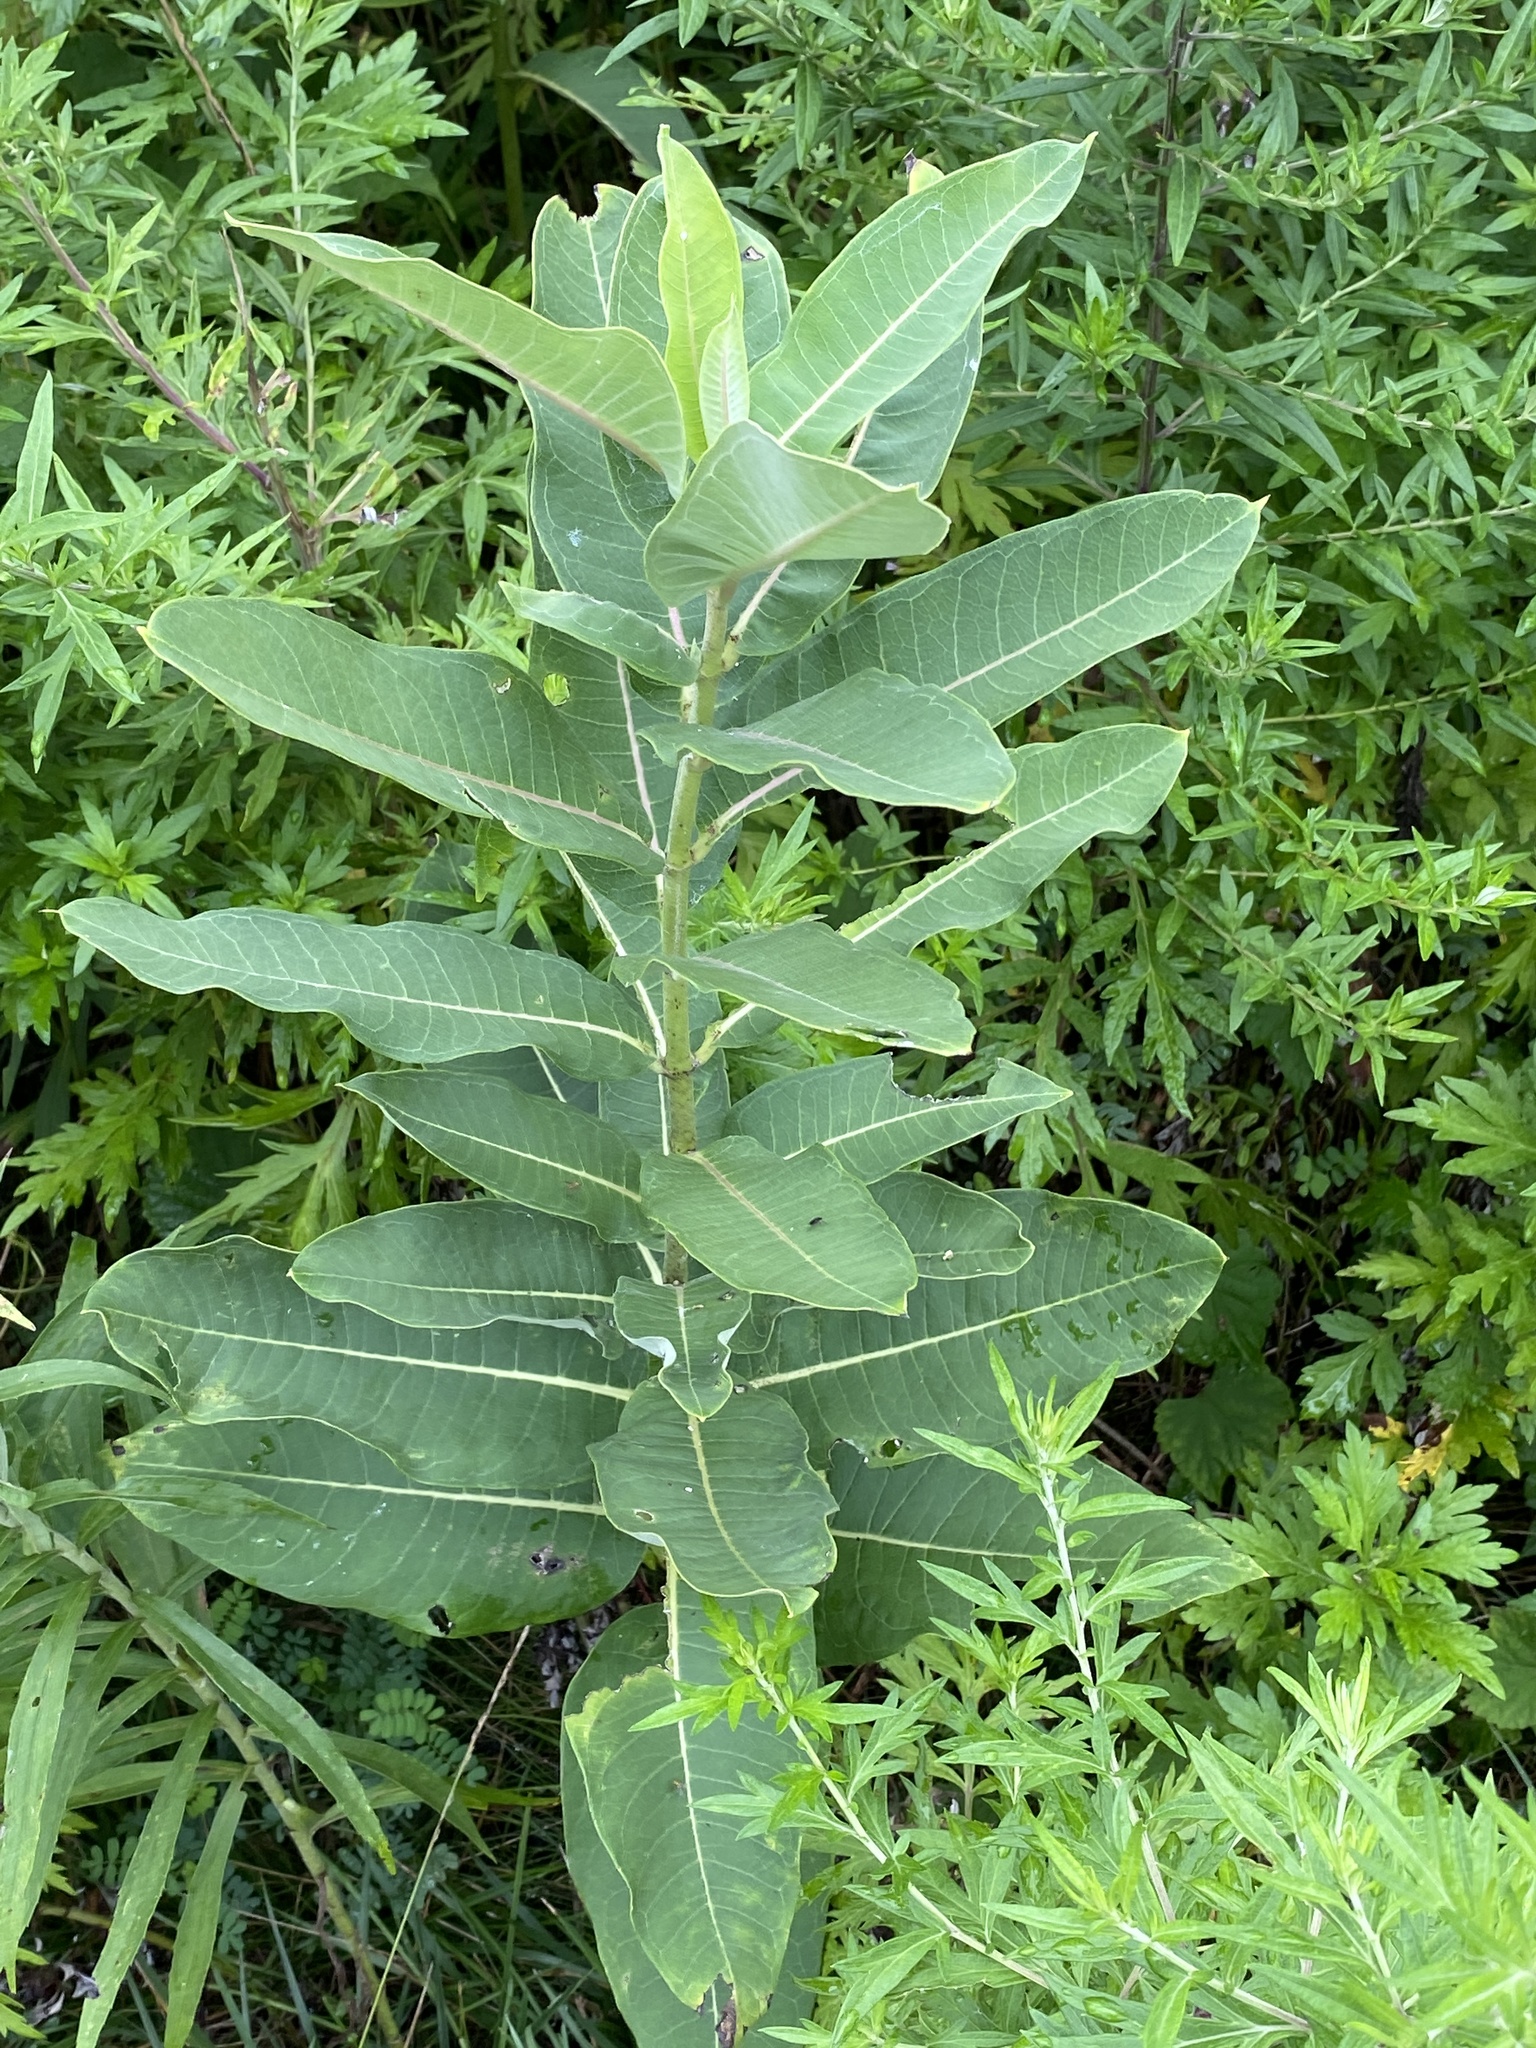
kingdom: Plantae
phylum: Tracheophyta
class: Magnoliopsida
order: Gentianales
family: Apocynaceae
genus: Asclepias
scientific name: Asclepias syriaca
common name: Common milkweed
